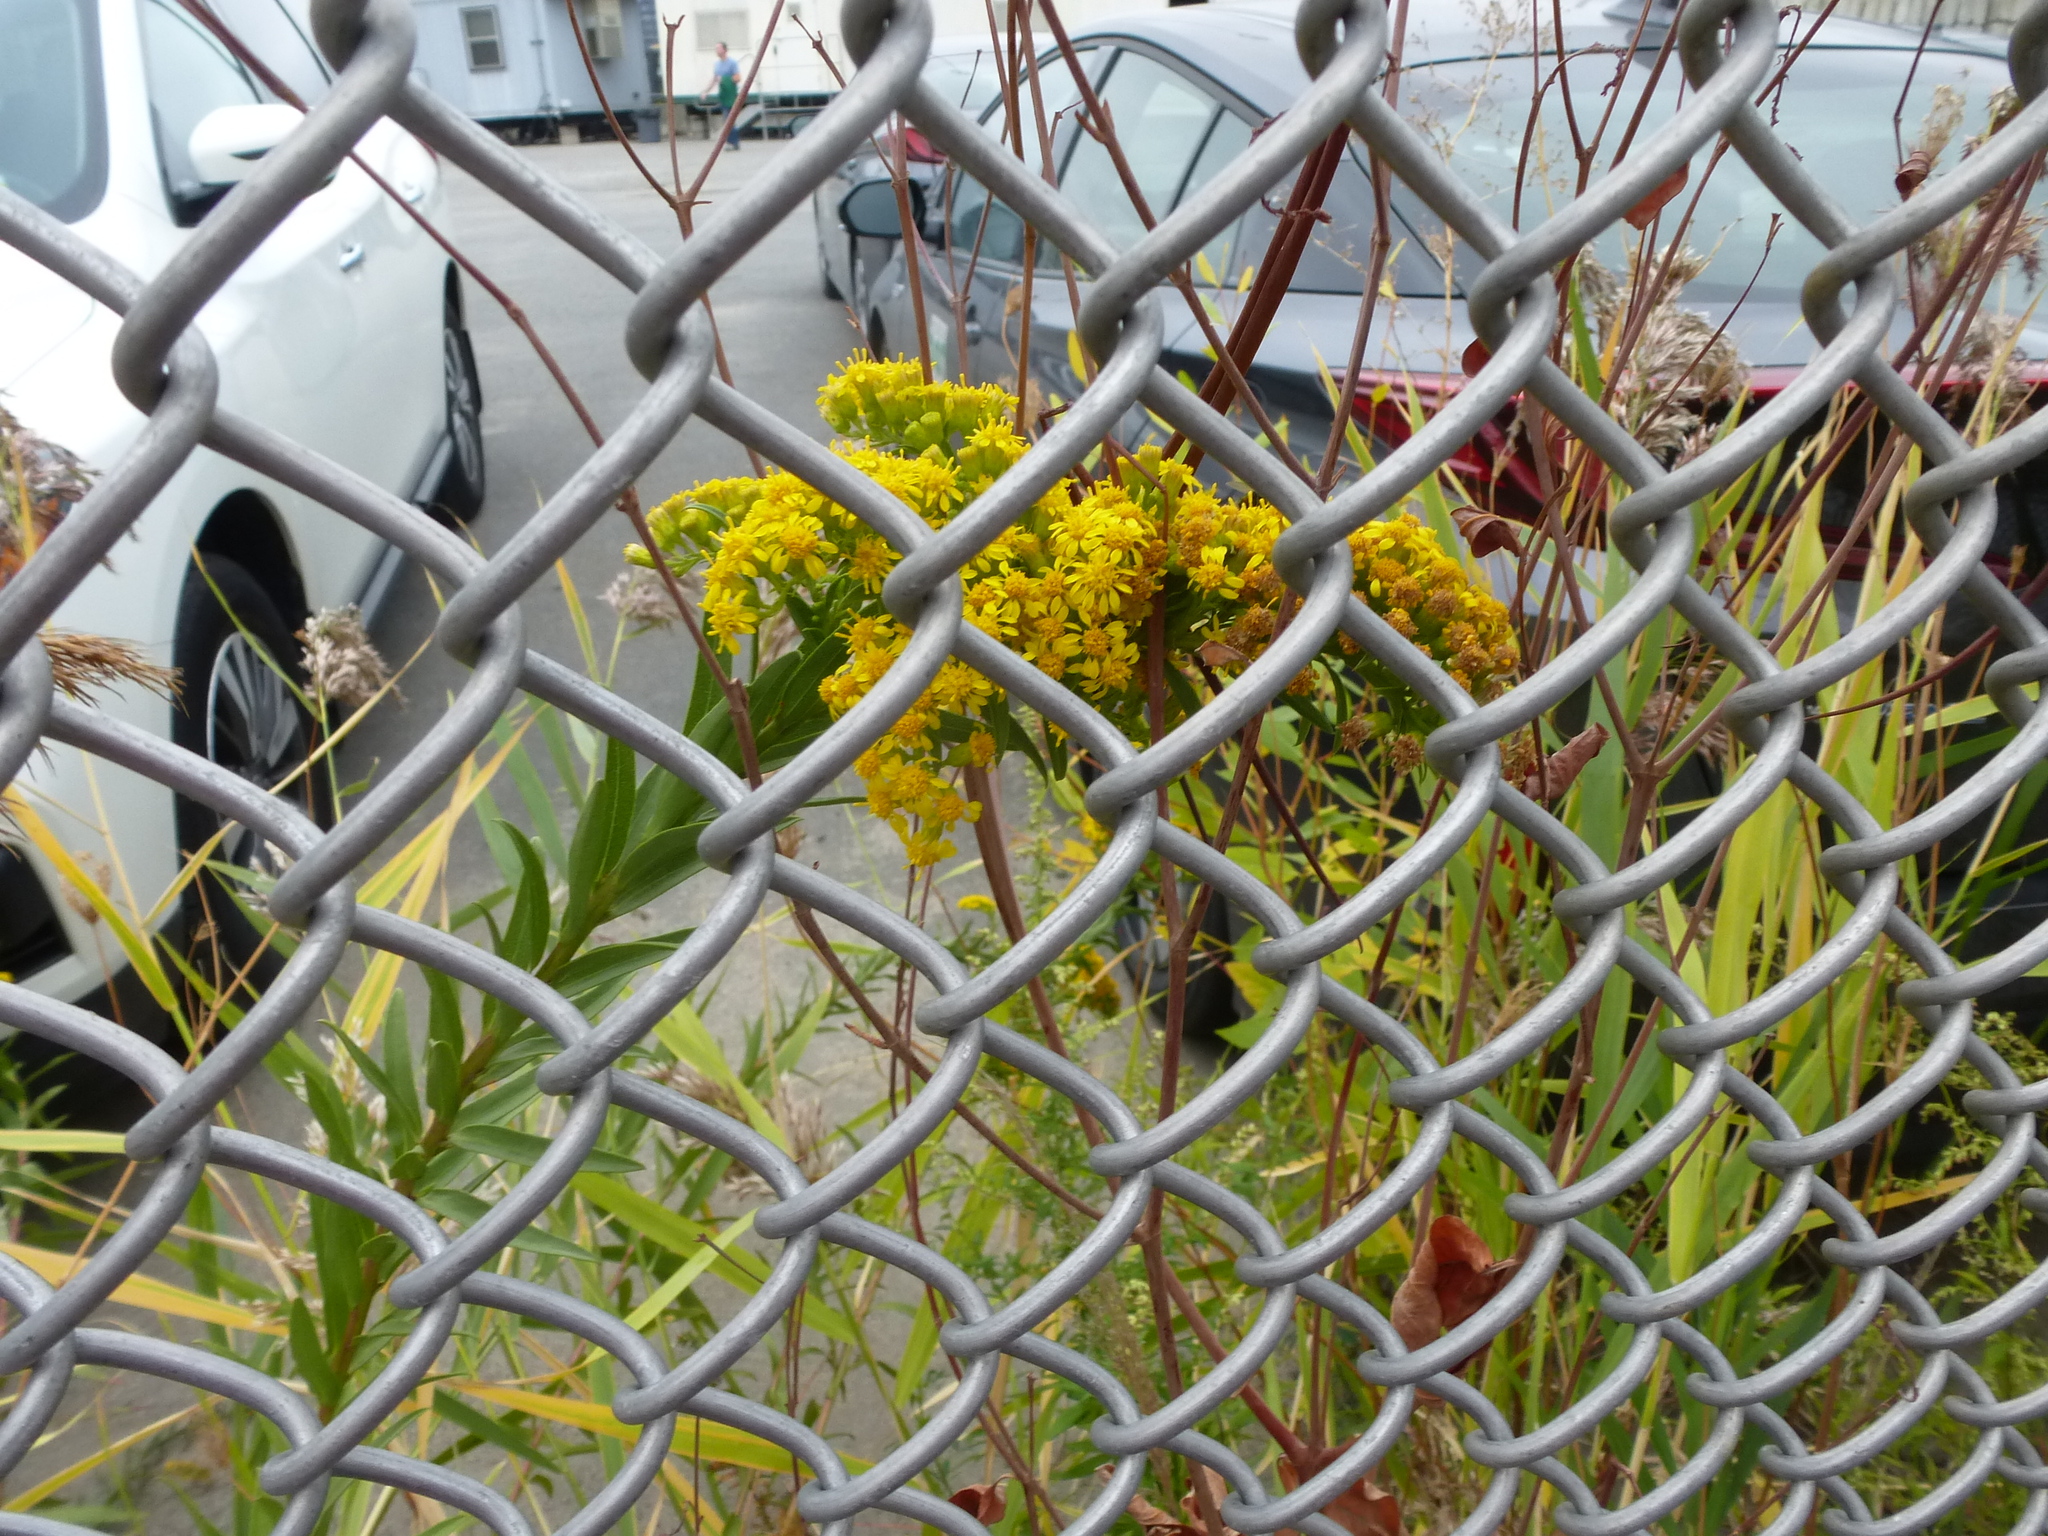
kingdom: Plantae
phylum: Tracheophyta
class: Magnoliopsida
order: Asterales
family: Asteraceae
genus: Solidago
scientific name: Solidago sempervirens
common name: Salt-marsh goldenrod
